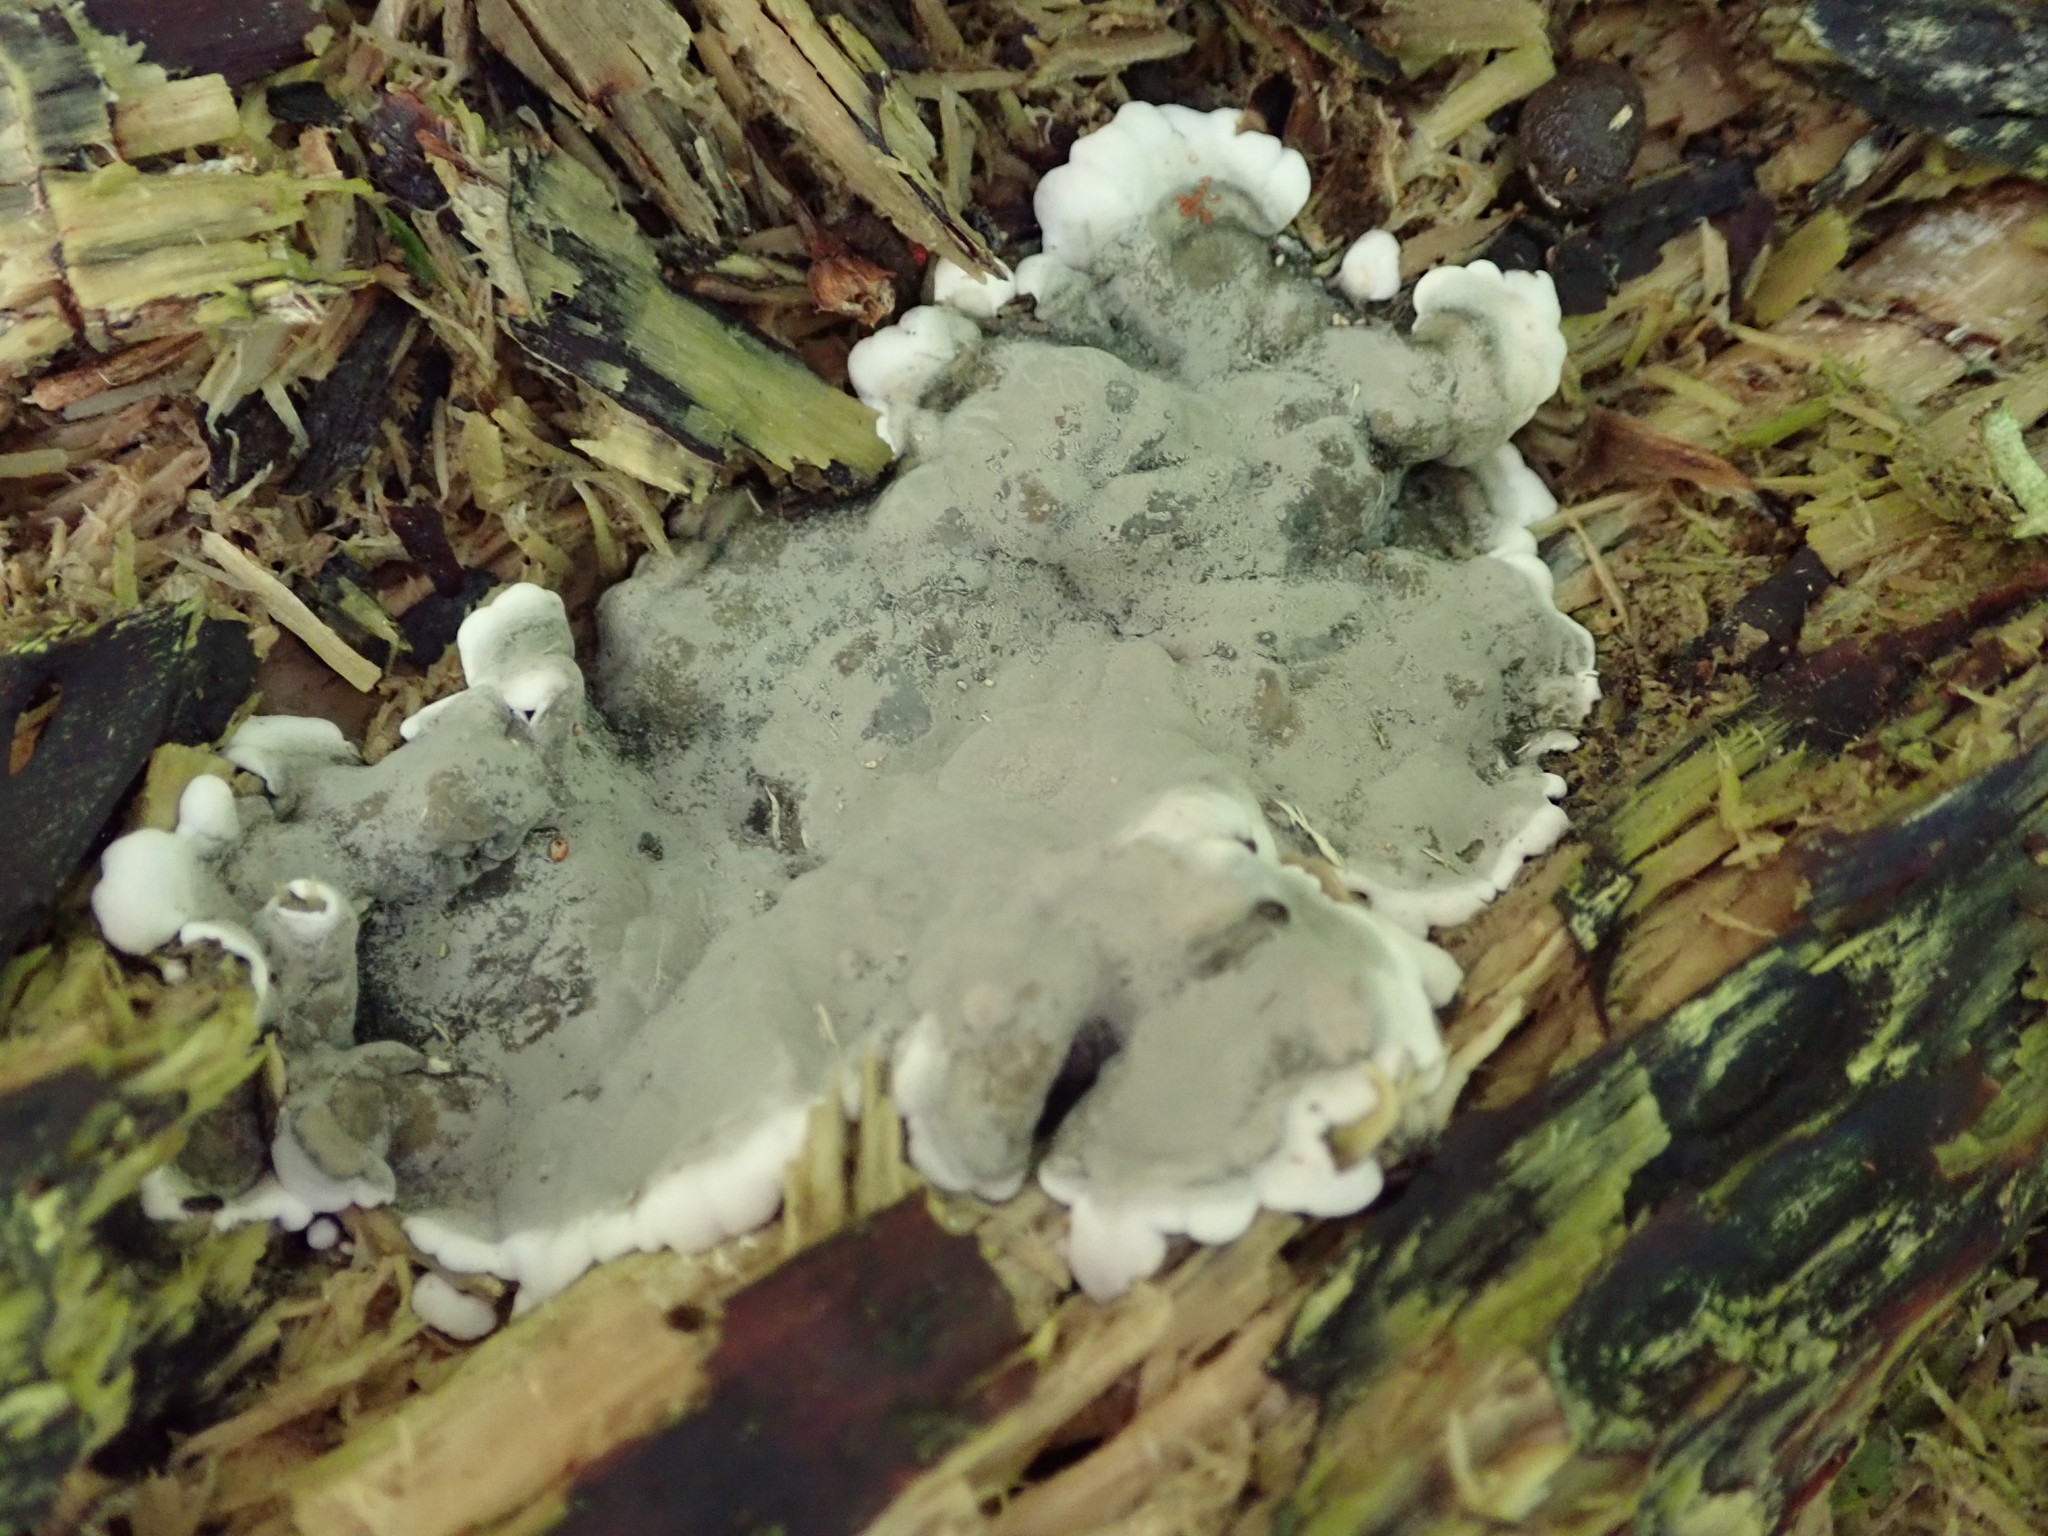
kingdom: Fungi
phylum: Ascomycota
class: Sordariomycetes
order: Xylariales
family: Xylariaceae
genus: Kretzschmaria
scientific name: Kretzschmaria deusta
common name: Brittle cinder
